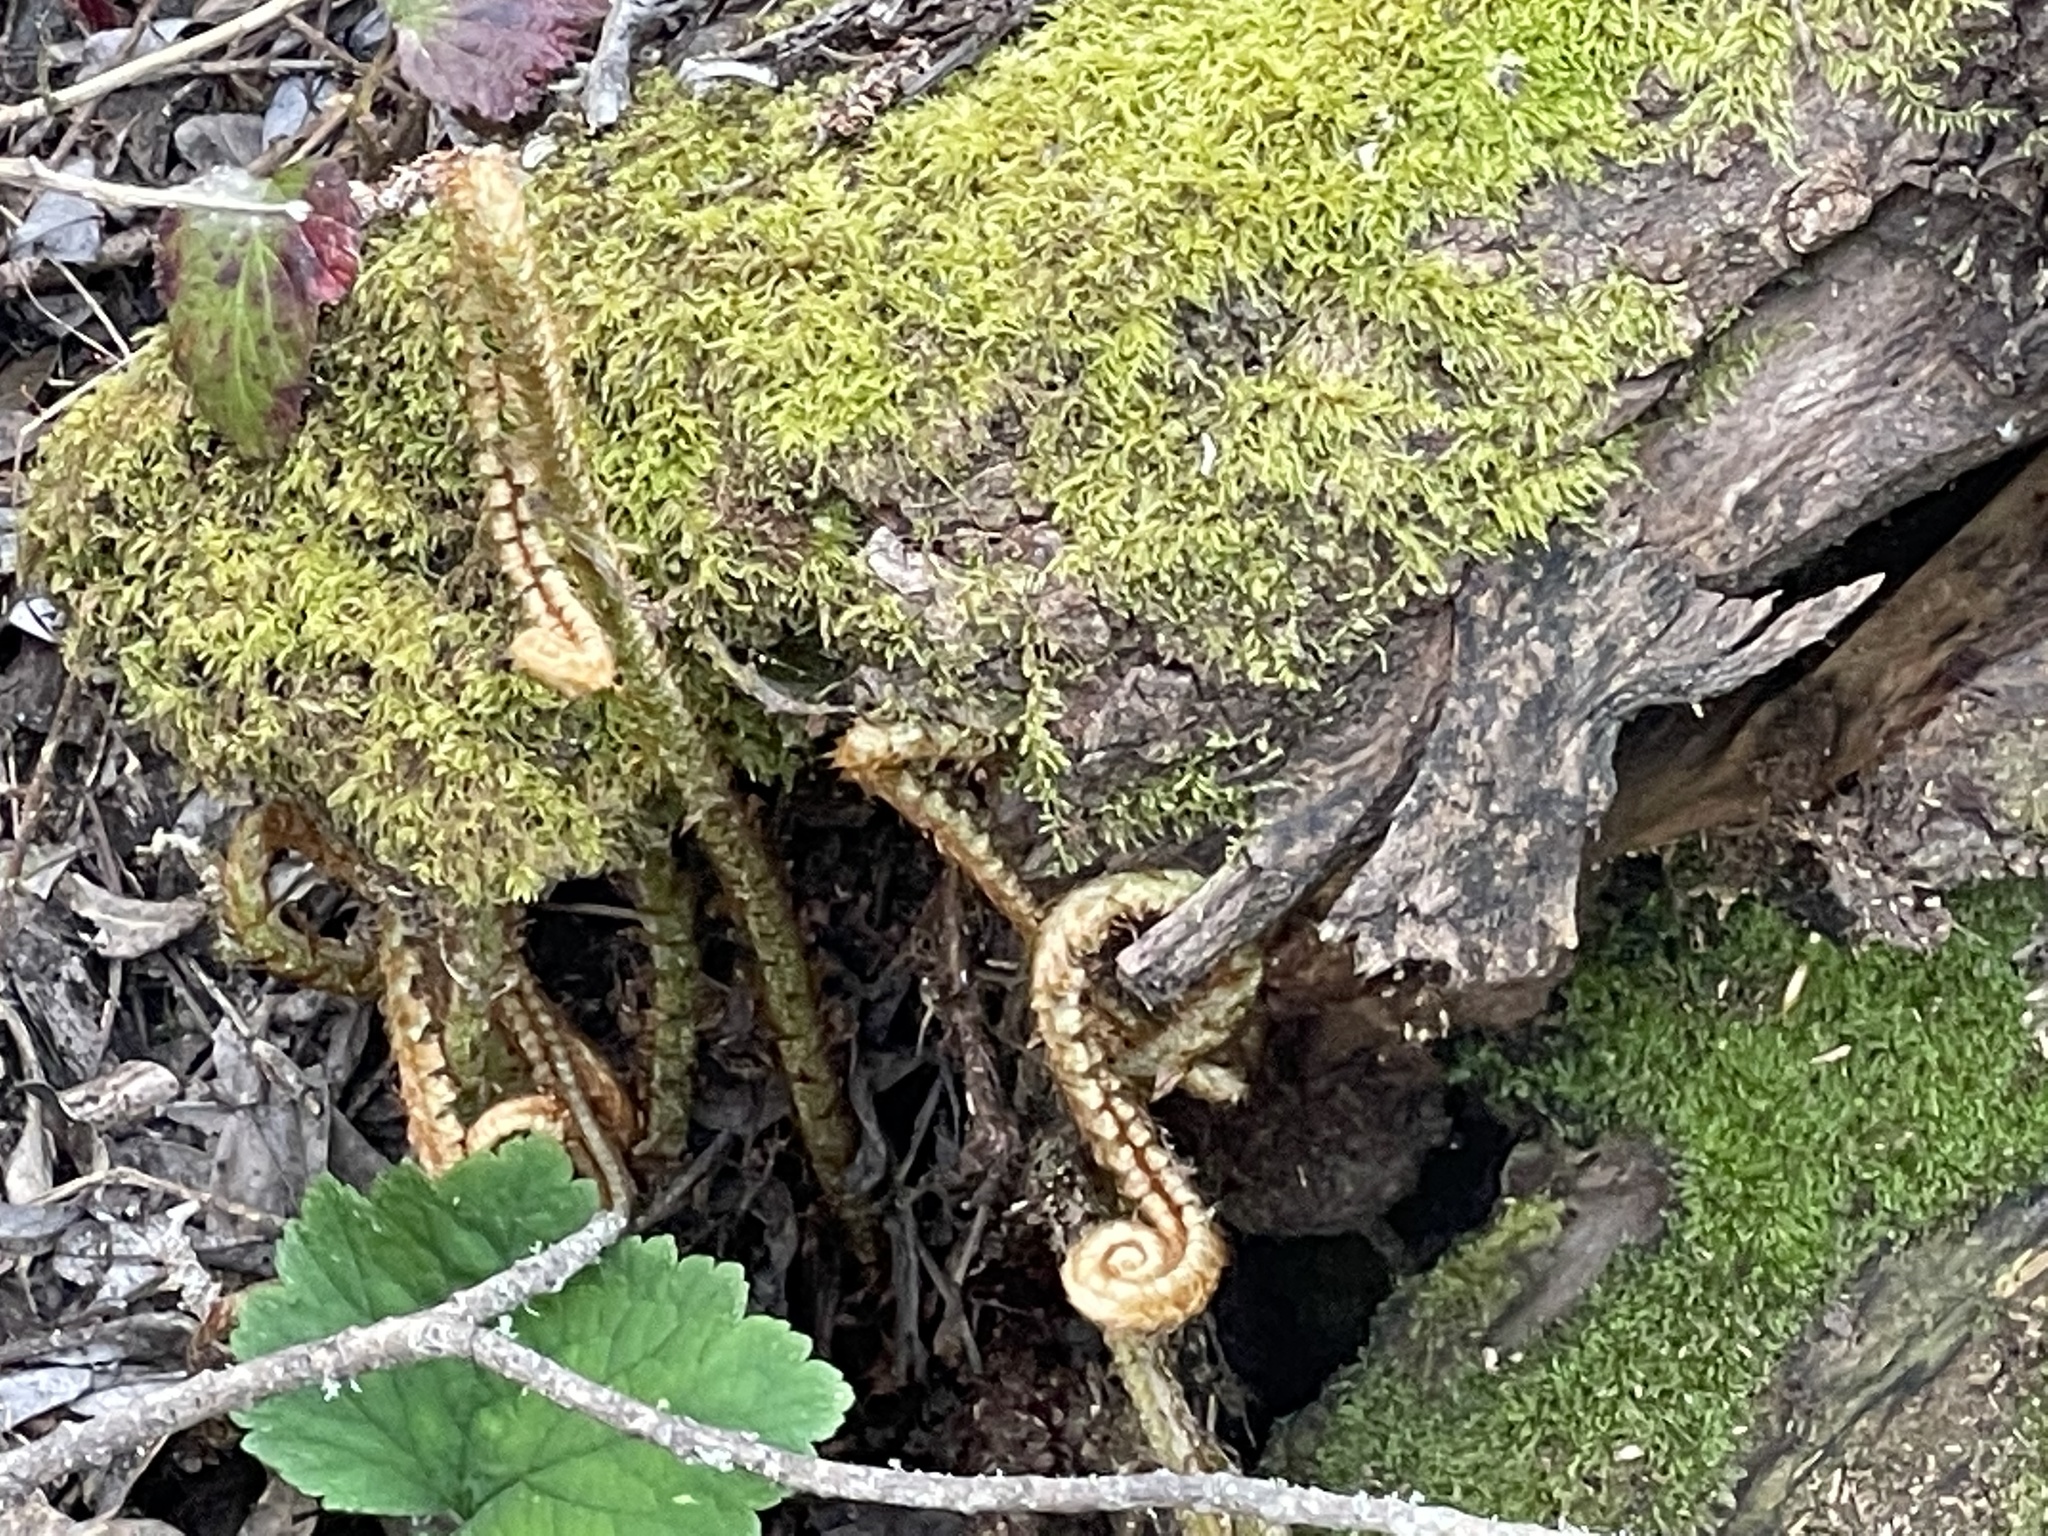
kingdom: Plantae
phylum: Tracheophyta
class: Polypodiopsida
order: Polypodiales
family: Dryopteridaceae
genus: Polystichum
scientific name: Polystichum munitum
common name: Western sword-fern
